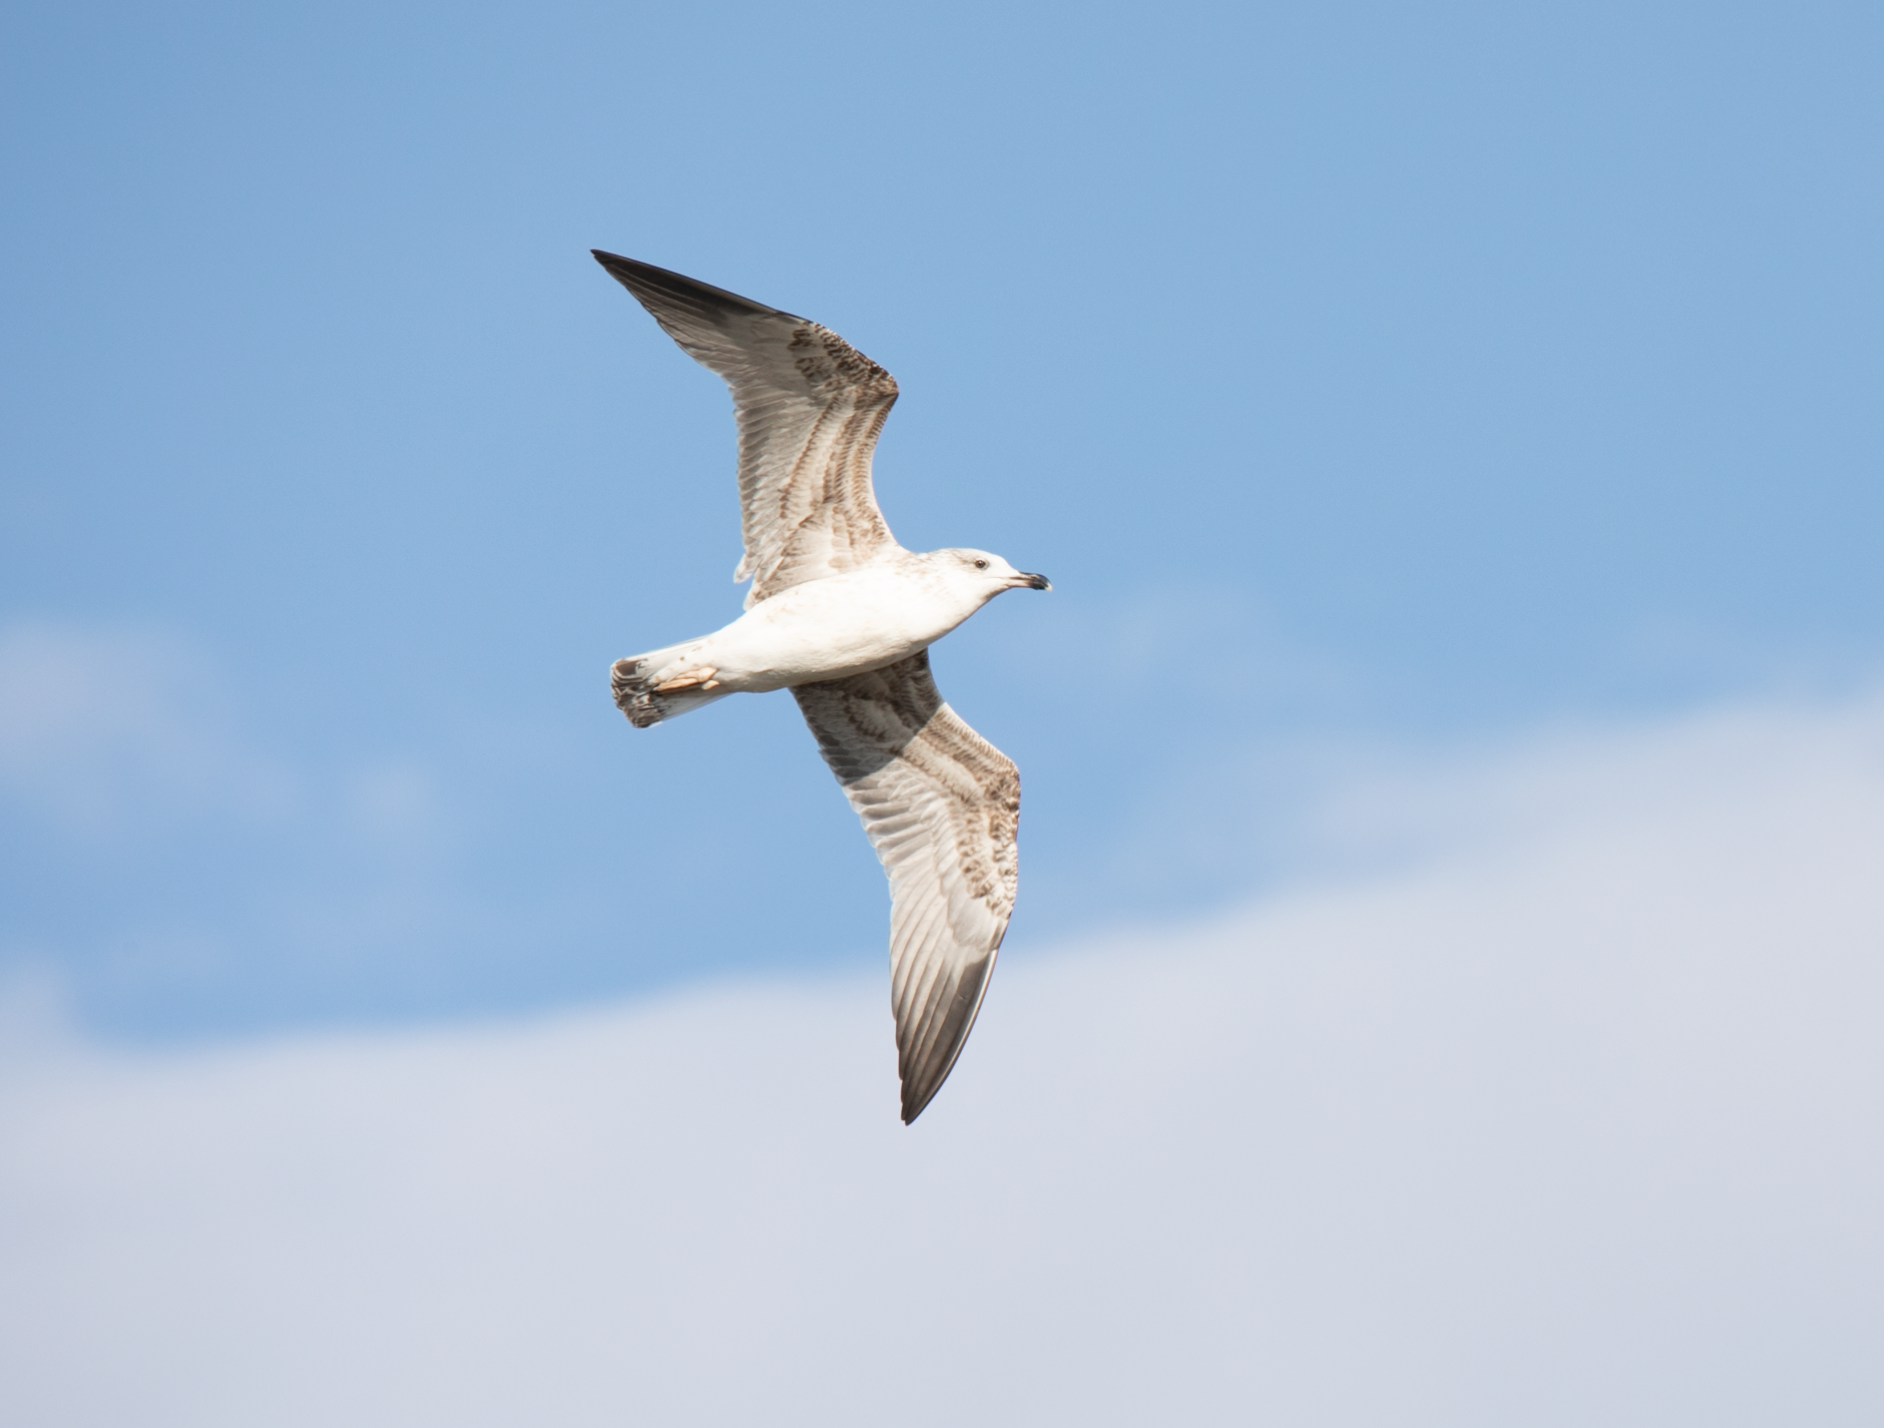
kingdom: Animalia
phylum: Chordata
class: Aves
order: Charadriiformes
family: Laridae
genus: Larus
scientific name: Larus michahellis
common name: Yellow-legged gull
